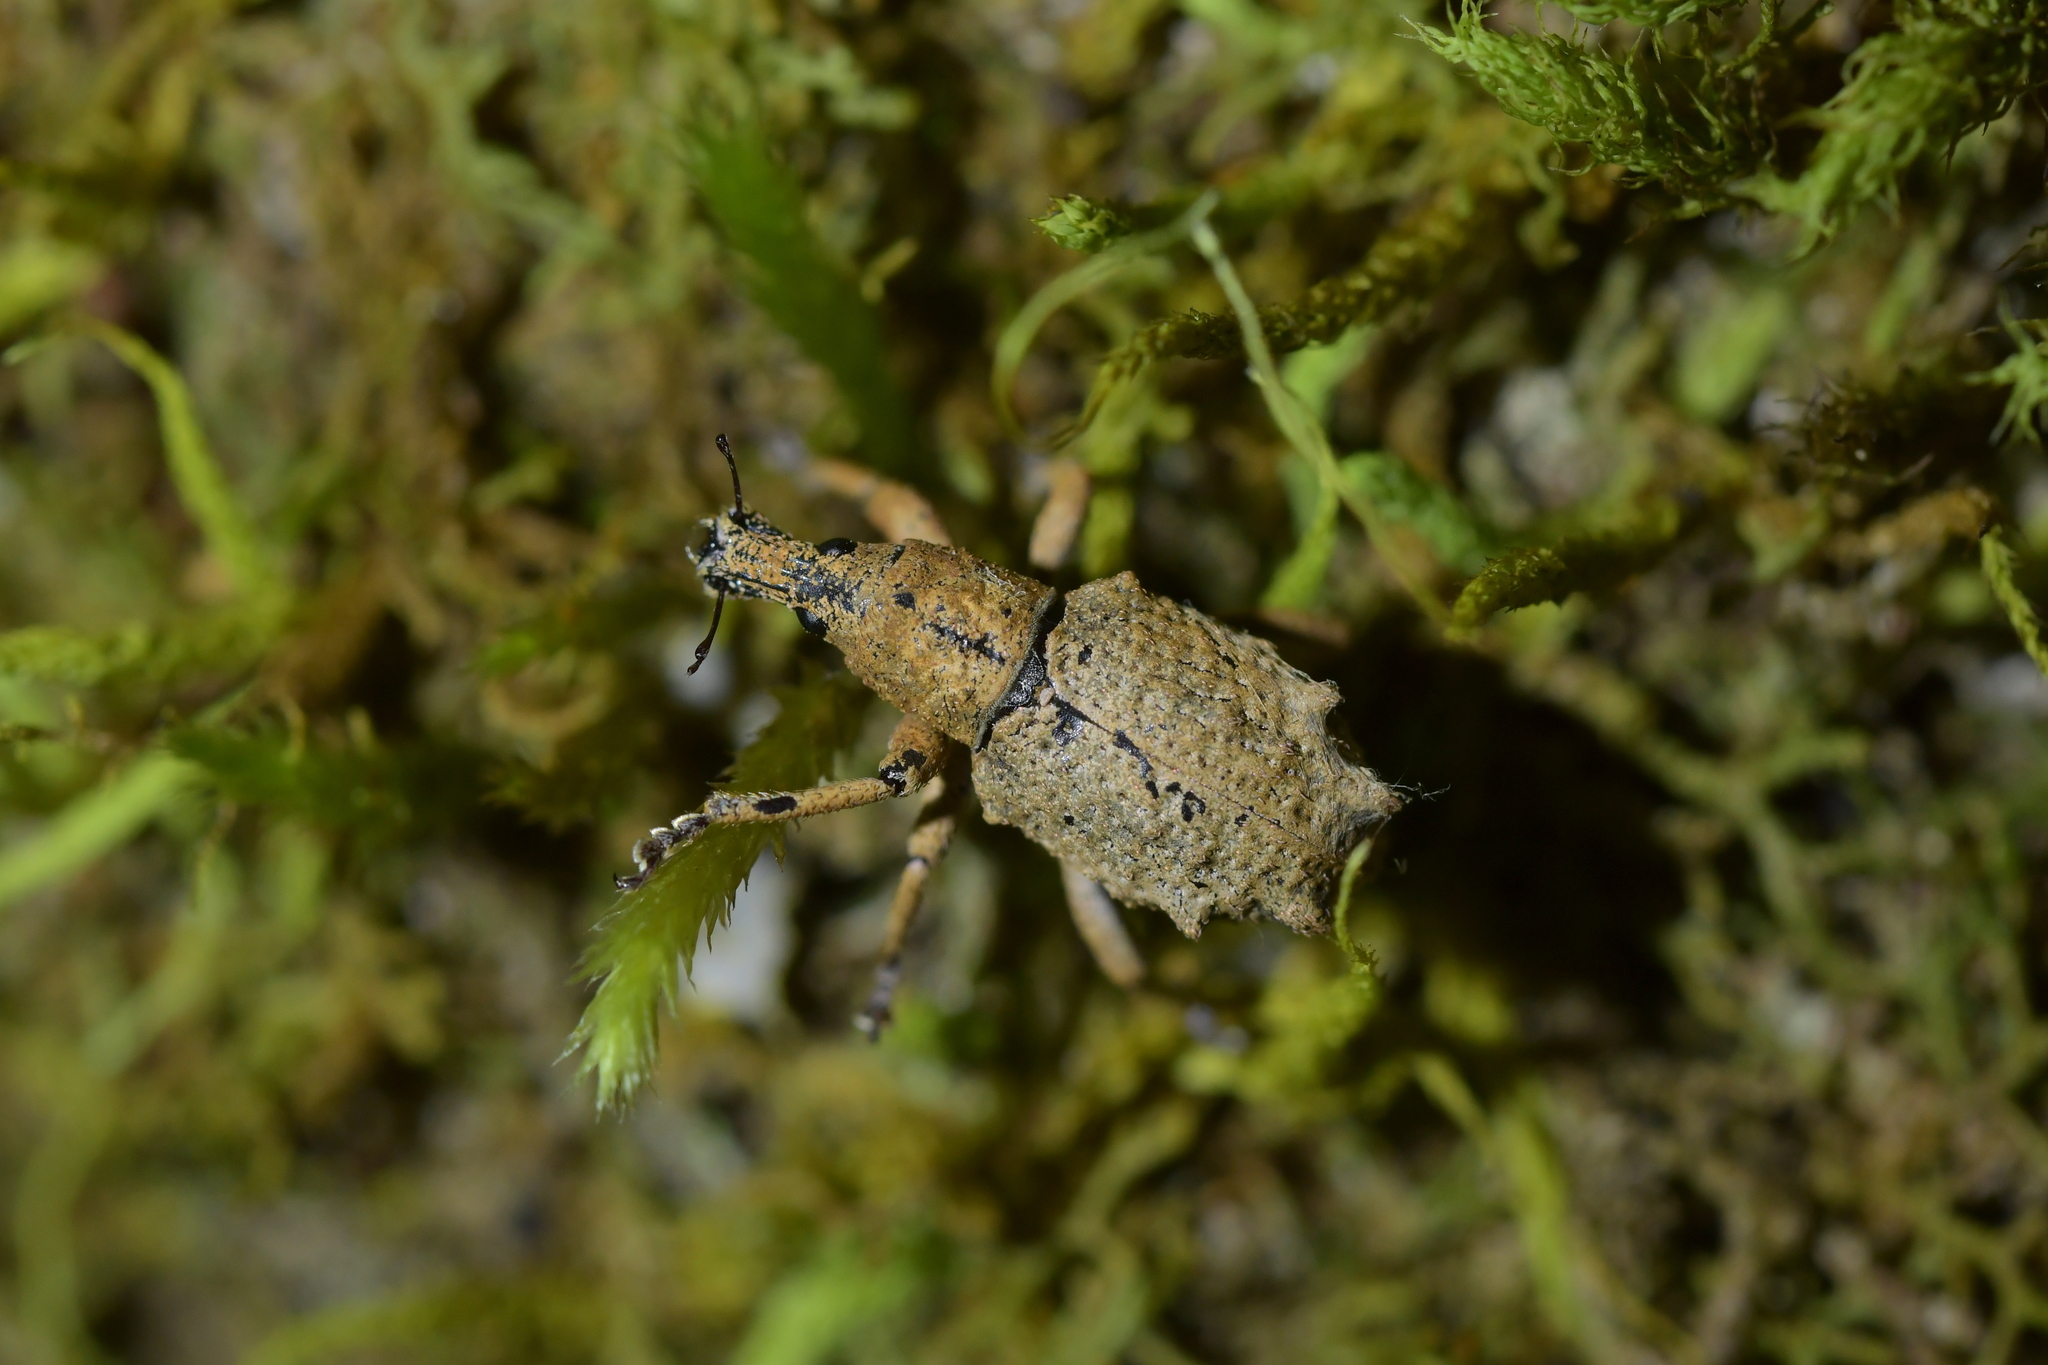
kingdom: Animalia
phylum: Arthropoda
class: Insecta
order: Coleoptera
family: Curculionidae
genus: Eurynotia
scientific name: Eurynotia
